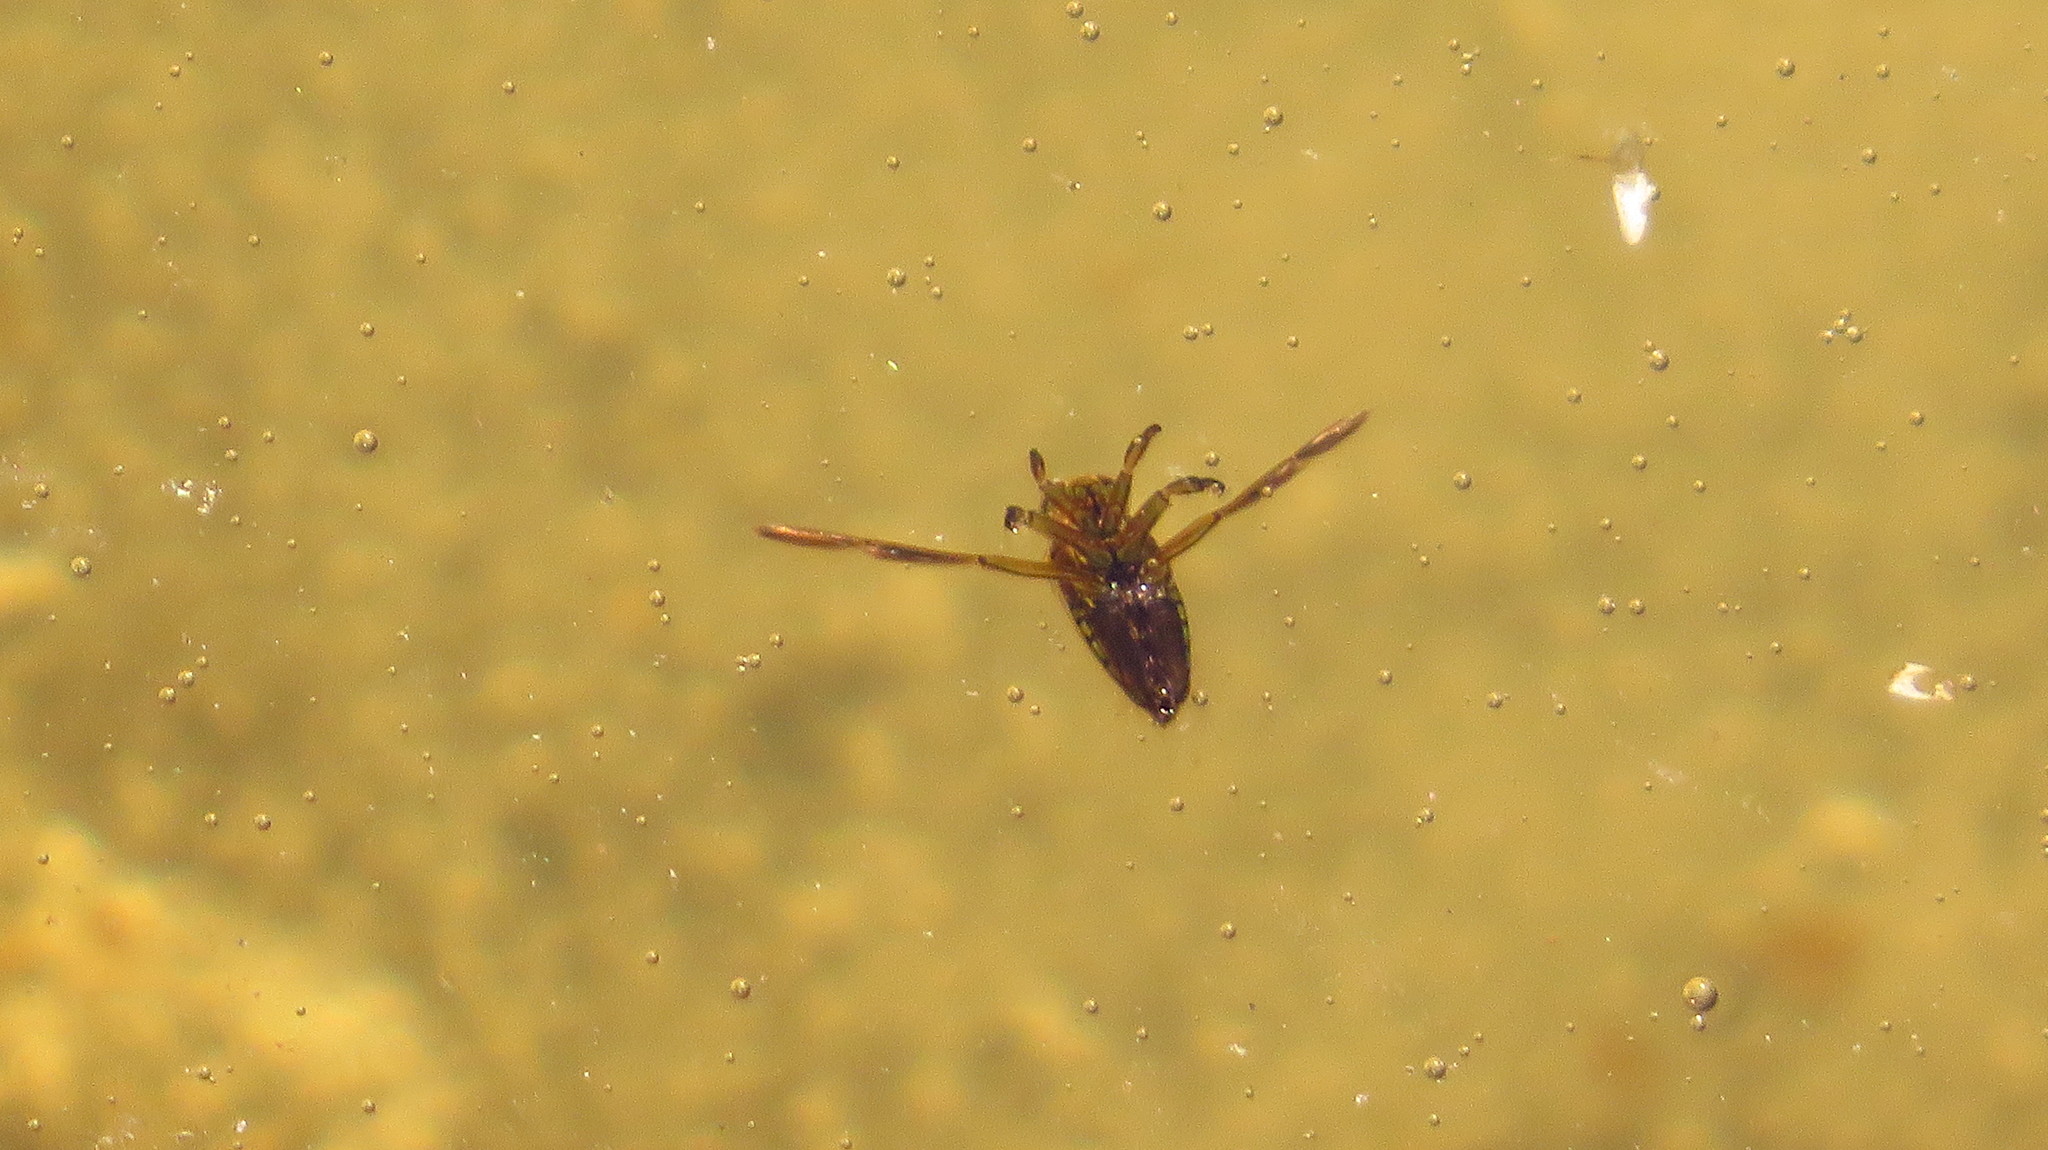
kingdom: Animalia
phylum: Arthropoda
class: Insecta
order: Hemiptera
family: Notonectidae
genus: Notonecta
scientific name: Notonecta
